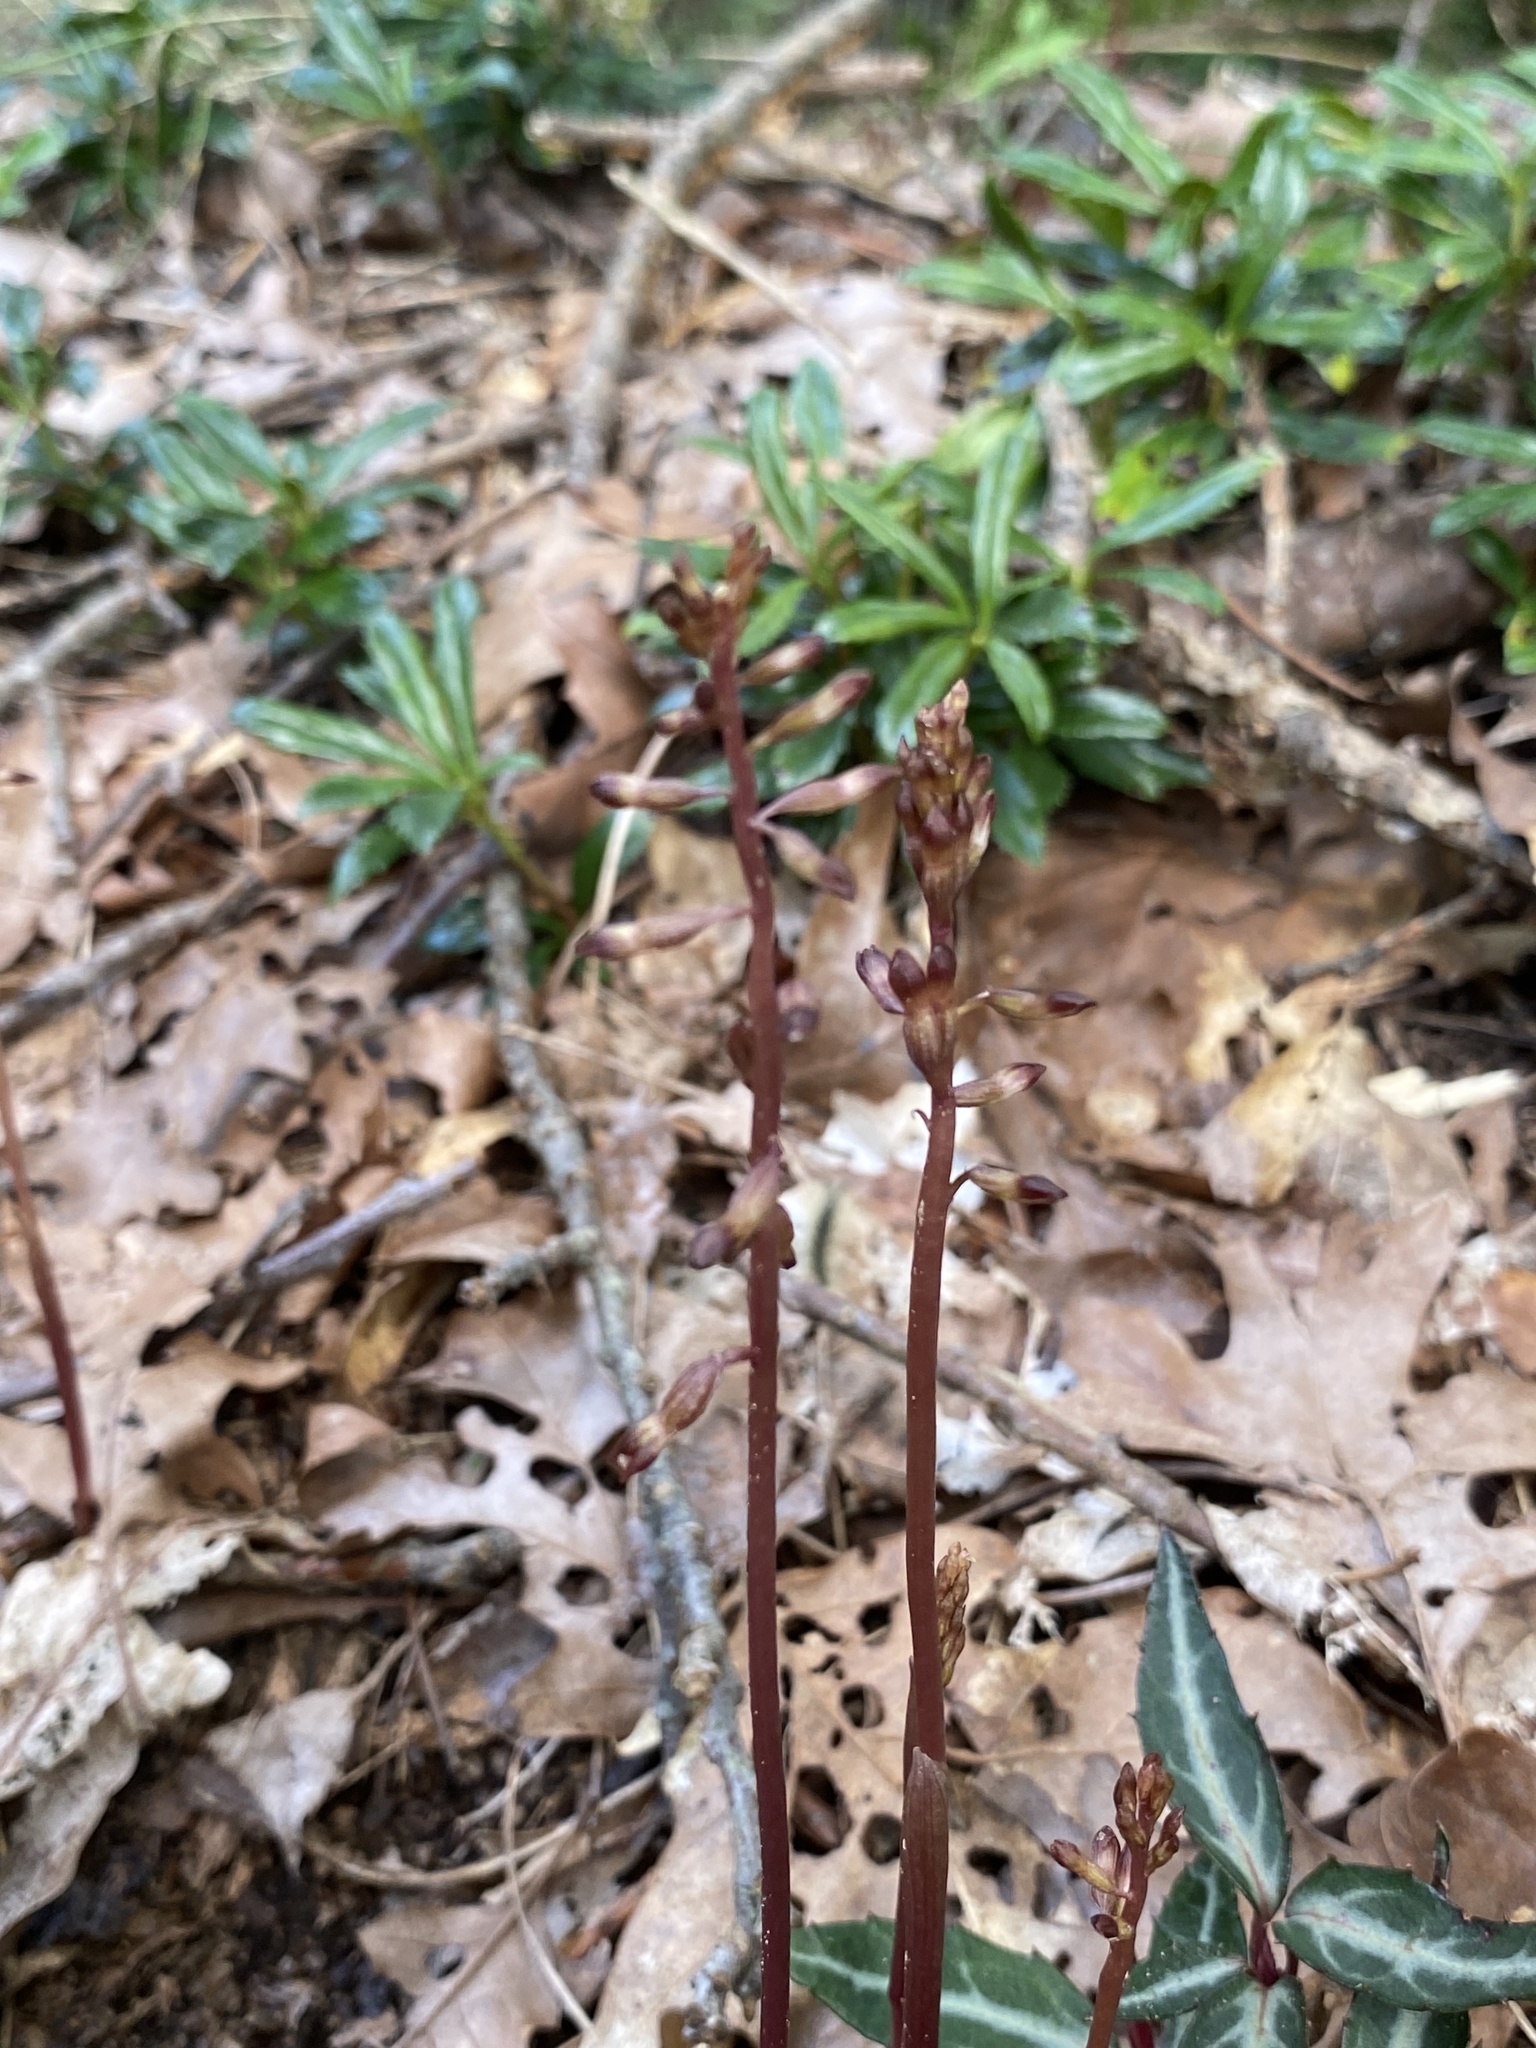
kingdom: Plantae
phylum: Tracheophyta
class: Liliopsida
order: Asparagales
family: Orchidaceae
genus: Corallorhiza
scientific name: Corallorhiza odontorhiza
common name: Autumn coralroot
